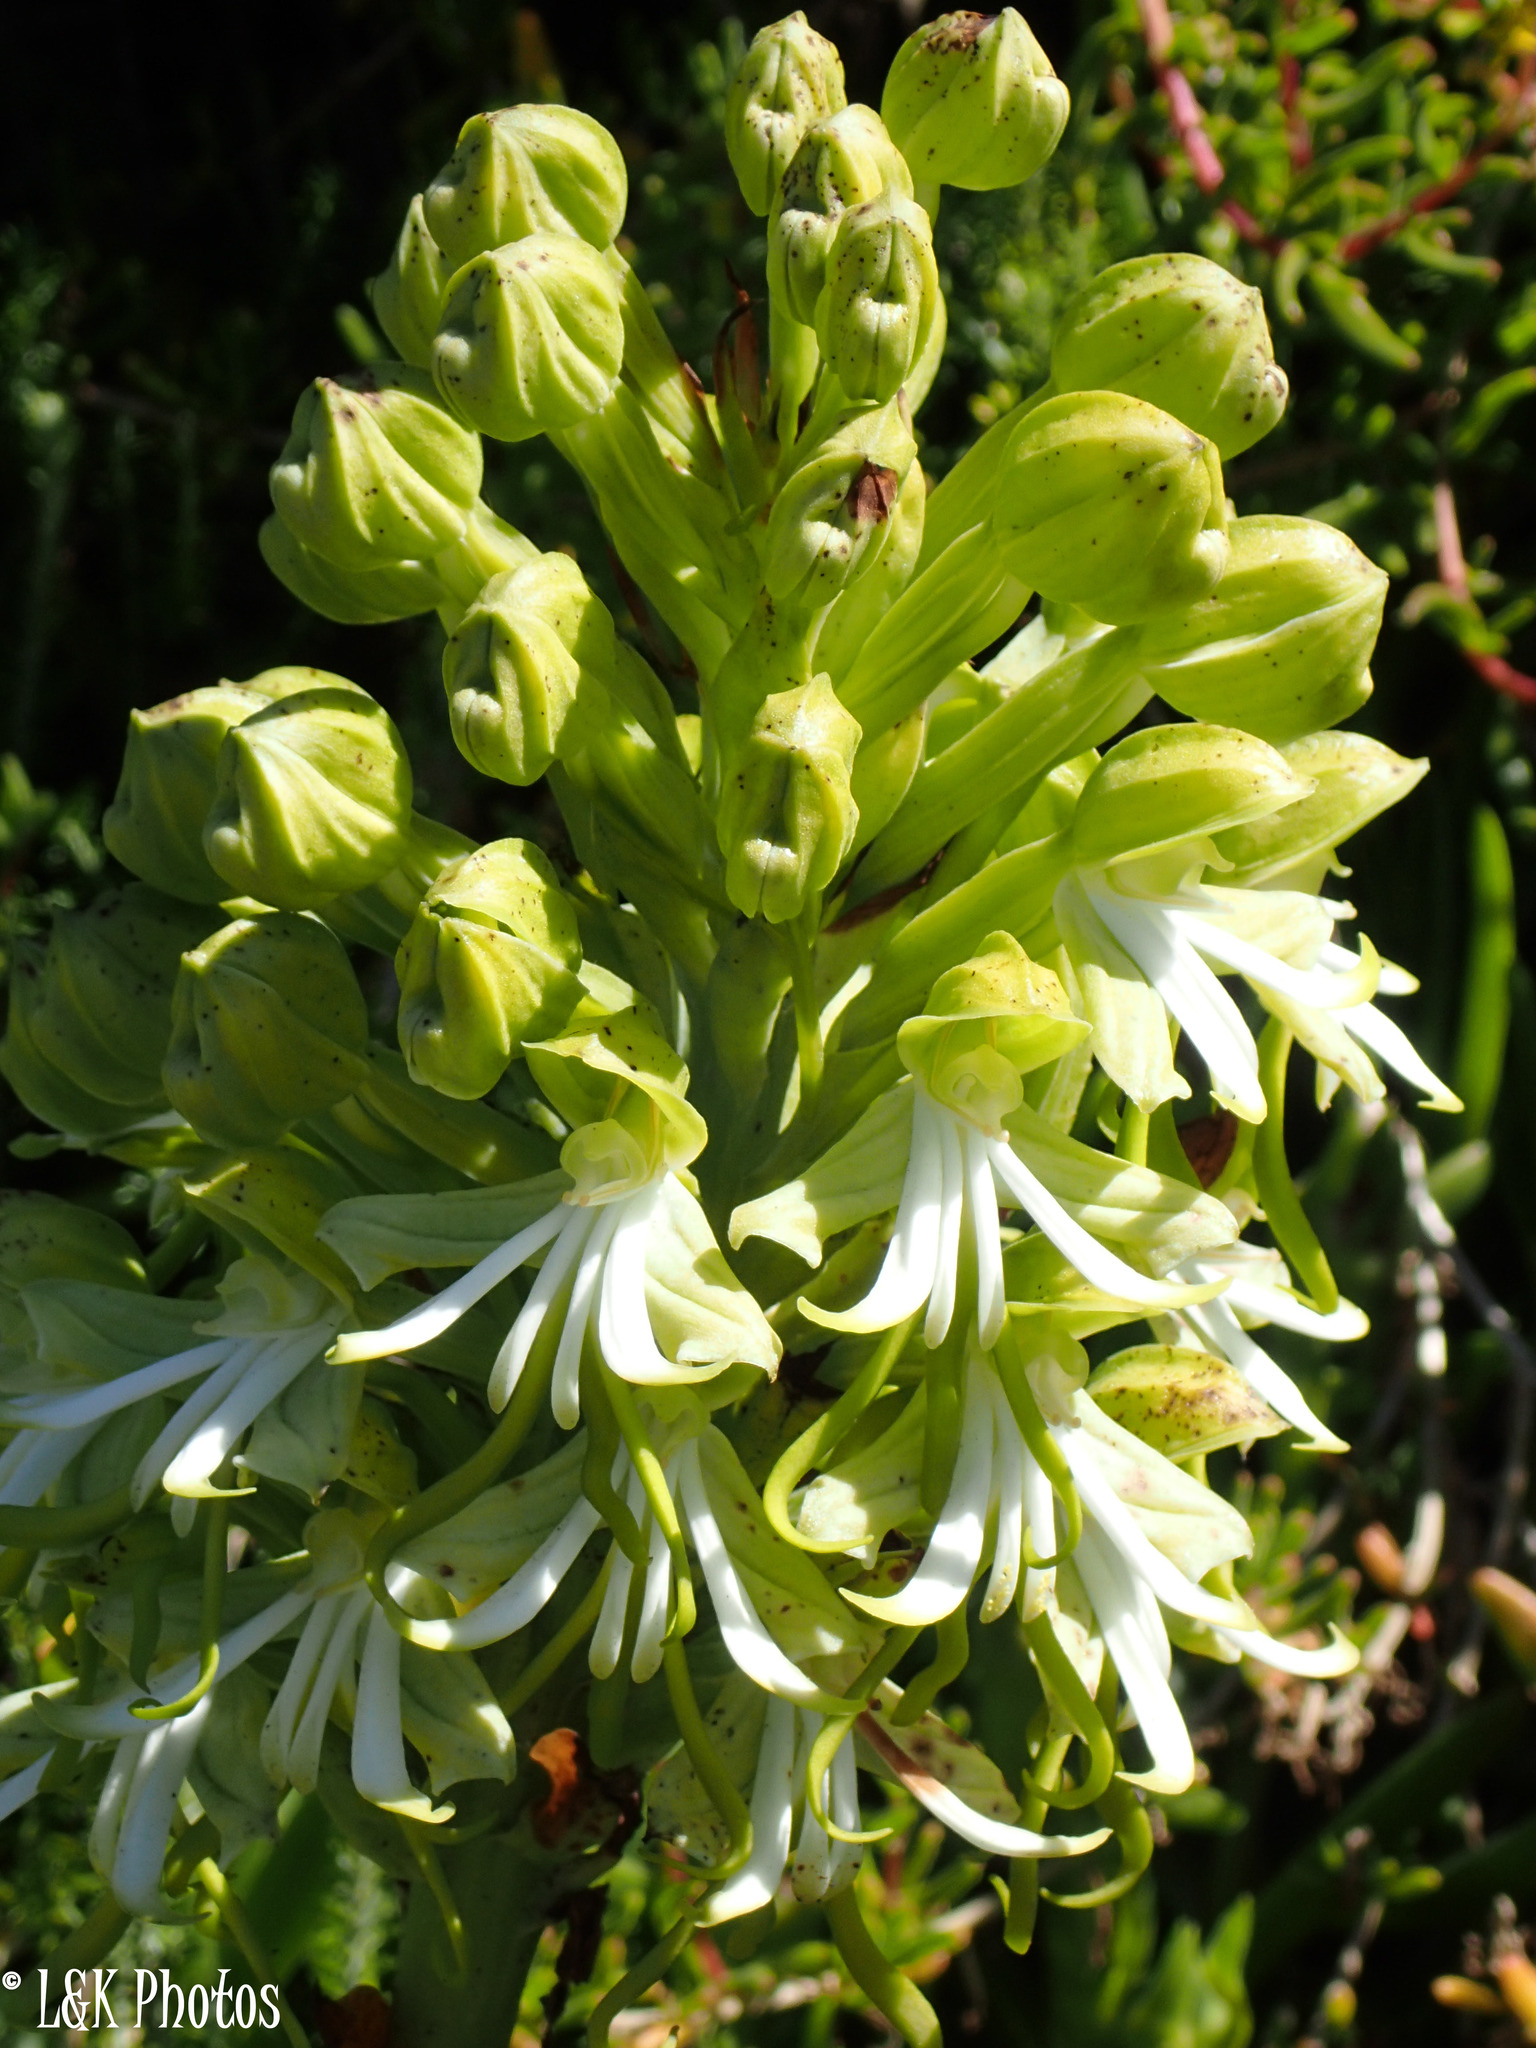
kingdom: Plantae
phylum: Tracheophyta
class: Liliopsida
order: Asparagales
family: Orchidaceae
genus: Bonatea
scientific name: Bonatea speciosa
